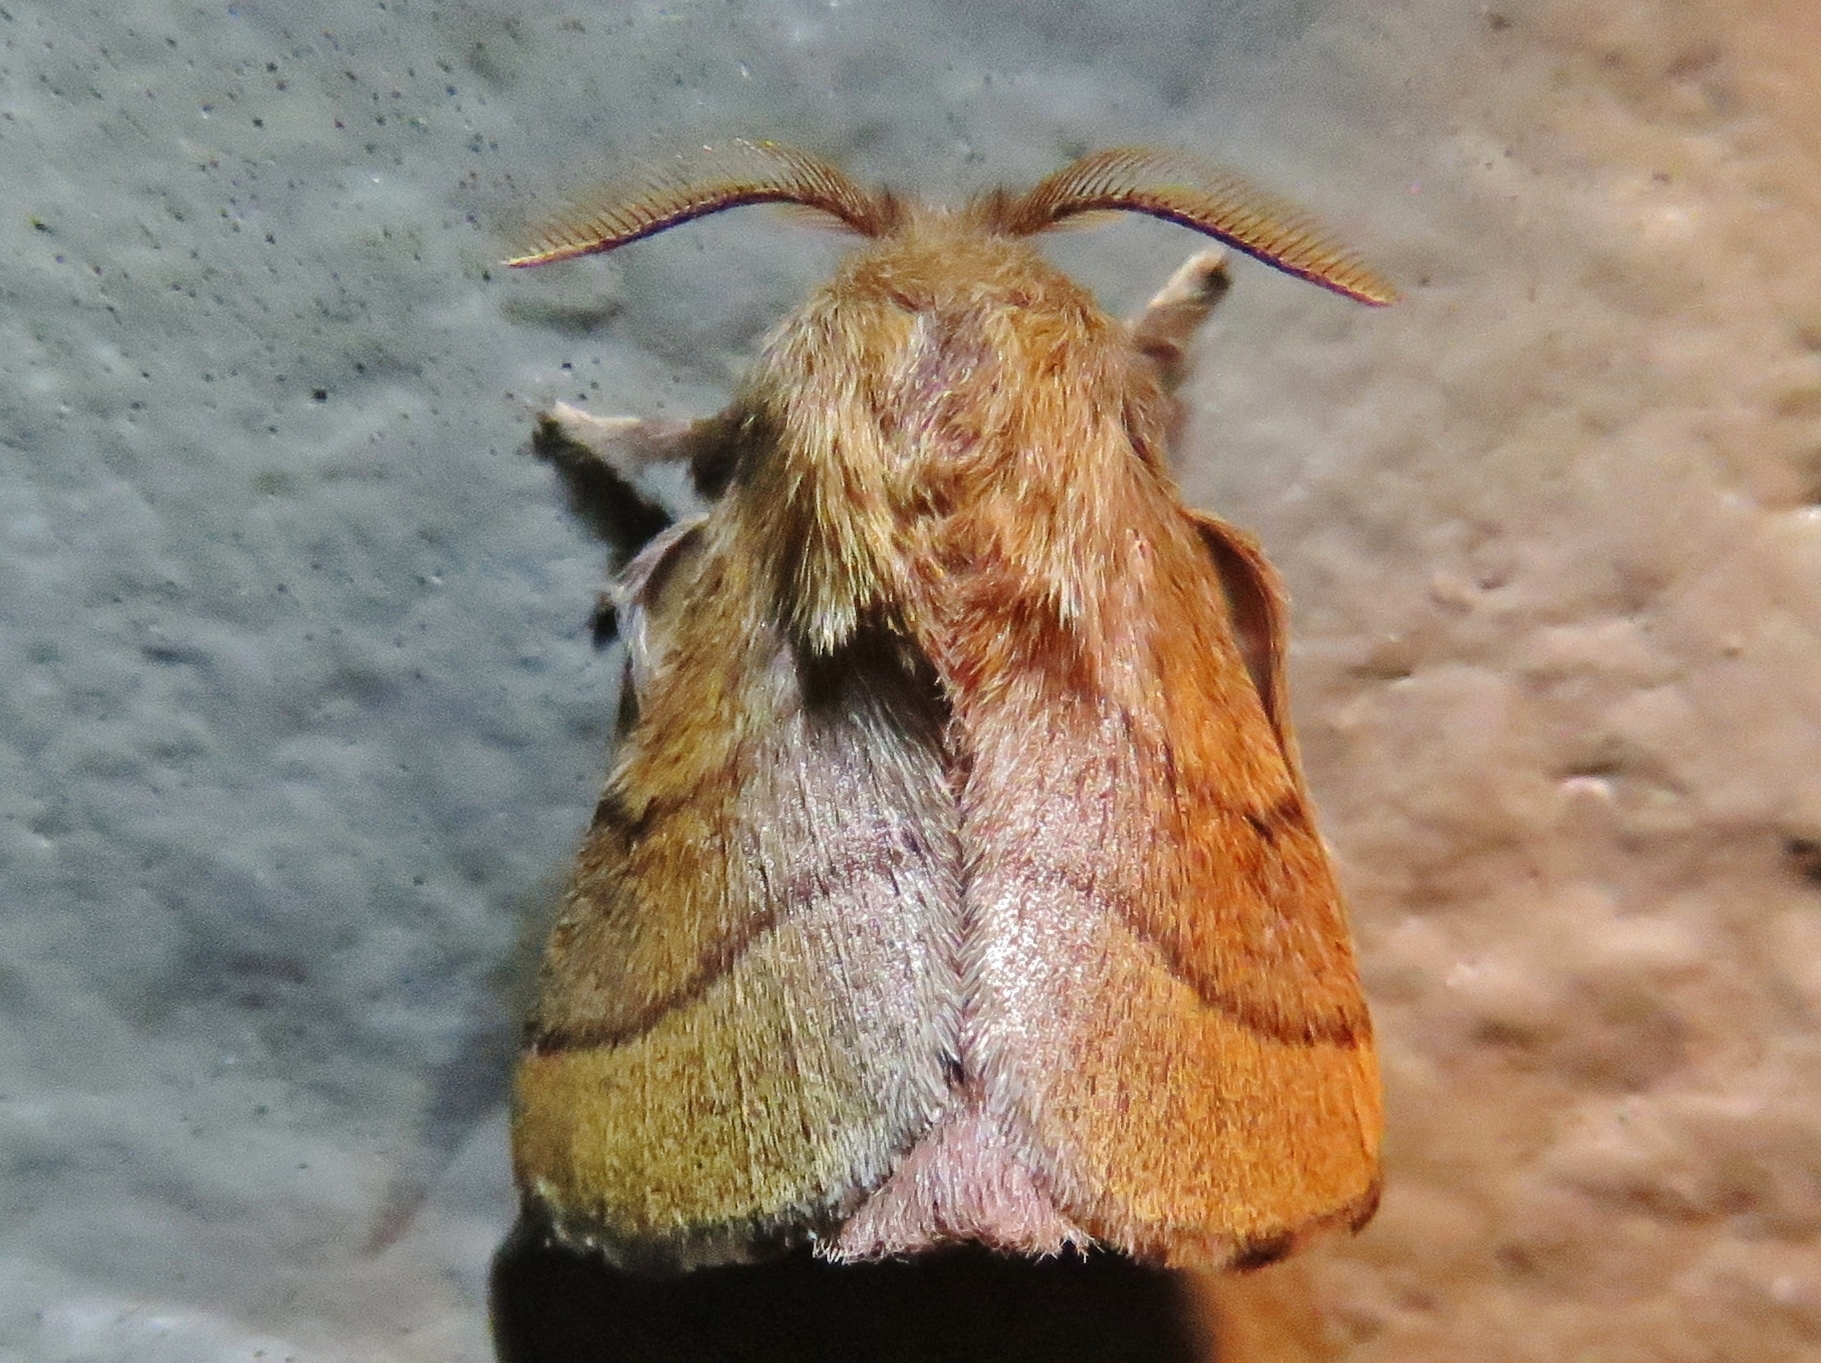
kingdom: Animalia
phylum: Arthropoda
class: Insecta
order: Lepidoptera
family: Lasiocampidae
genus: Malacosoma
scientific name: Malacosoma disstria
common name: Forest tent caterpillar
